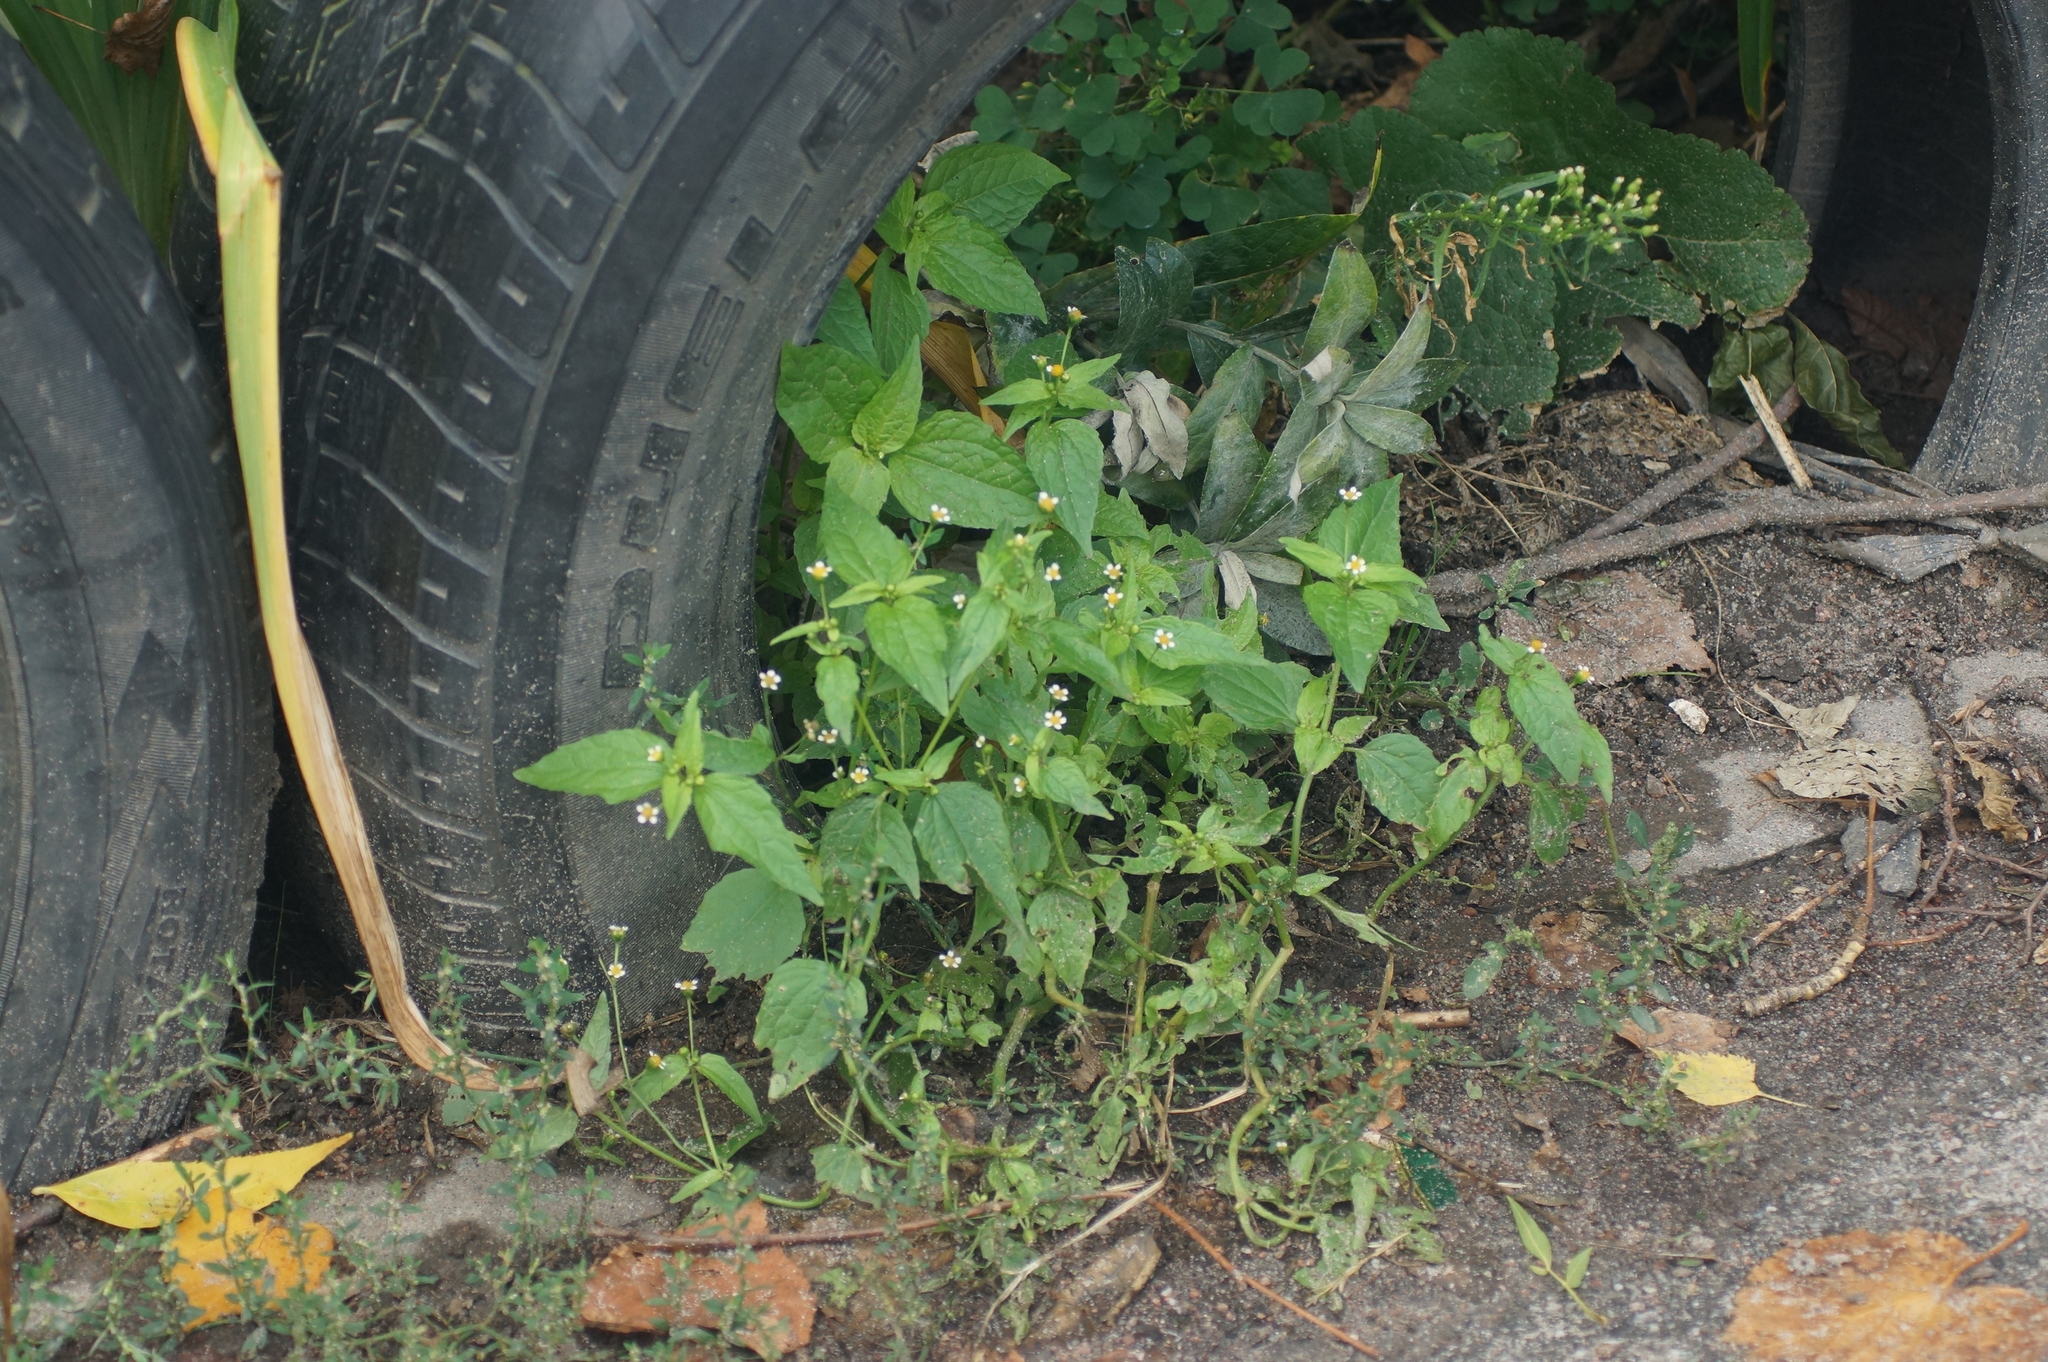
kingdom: Plantae
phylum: Tracheophyta
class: Magnoliopsida
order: Asterales
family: Asteraceae
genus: Galinsoga
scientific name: Galinsoga parviflora
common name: Gallant soldier
